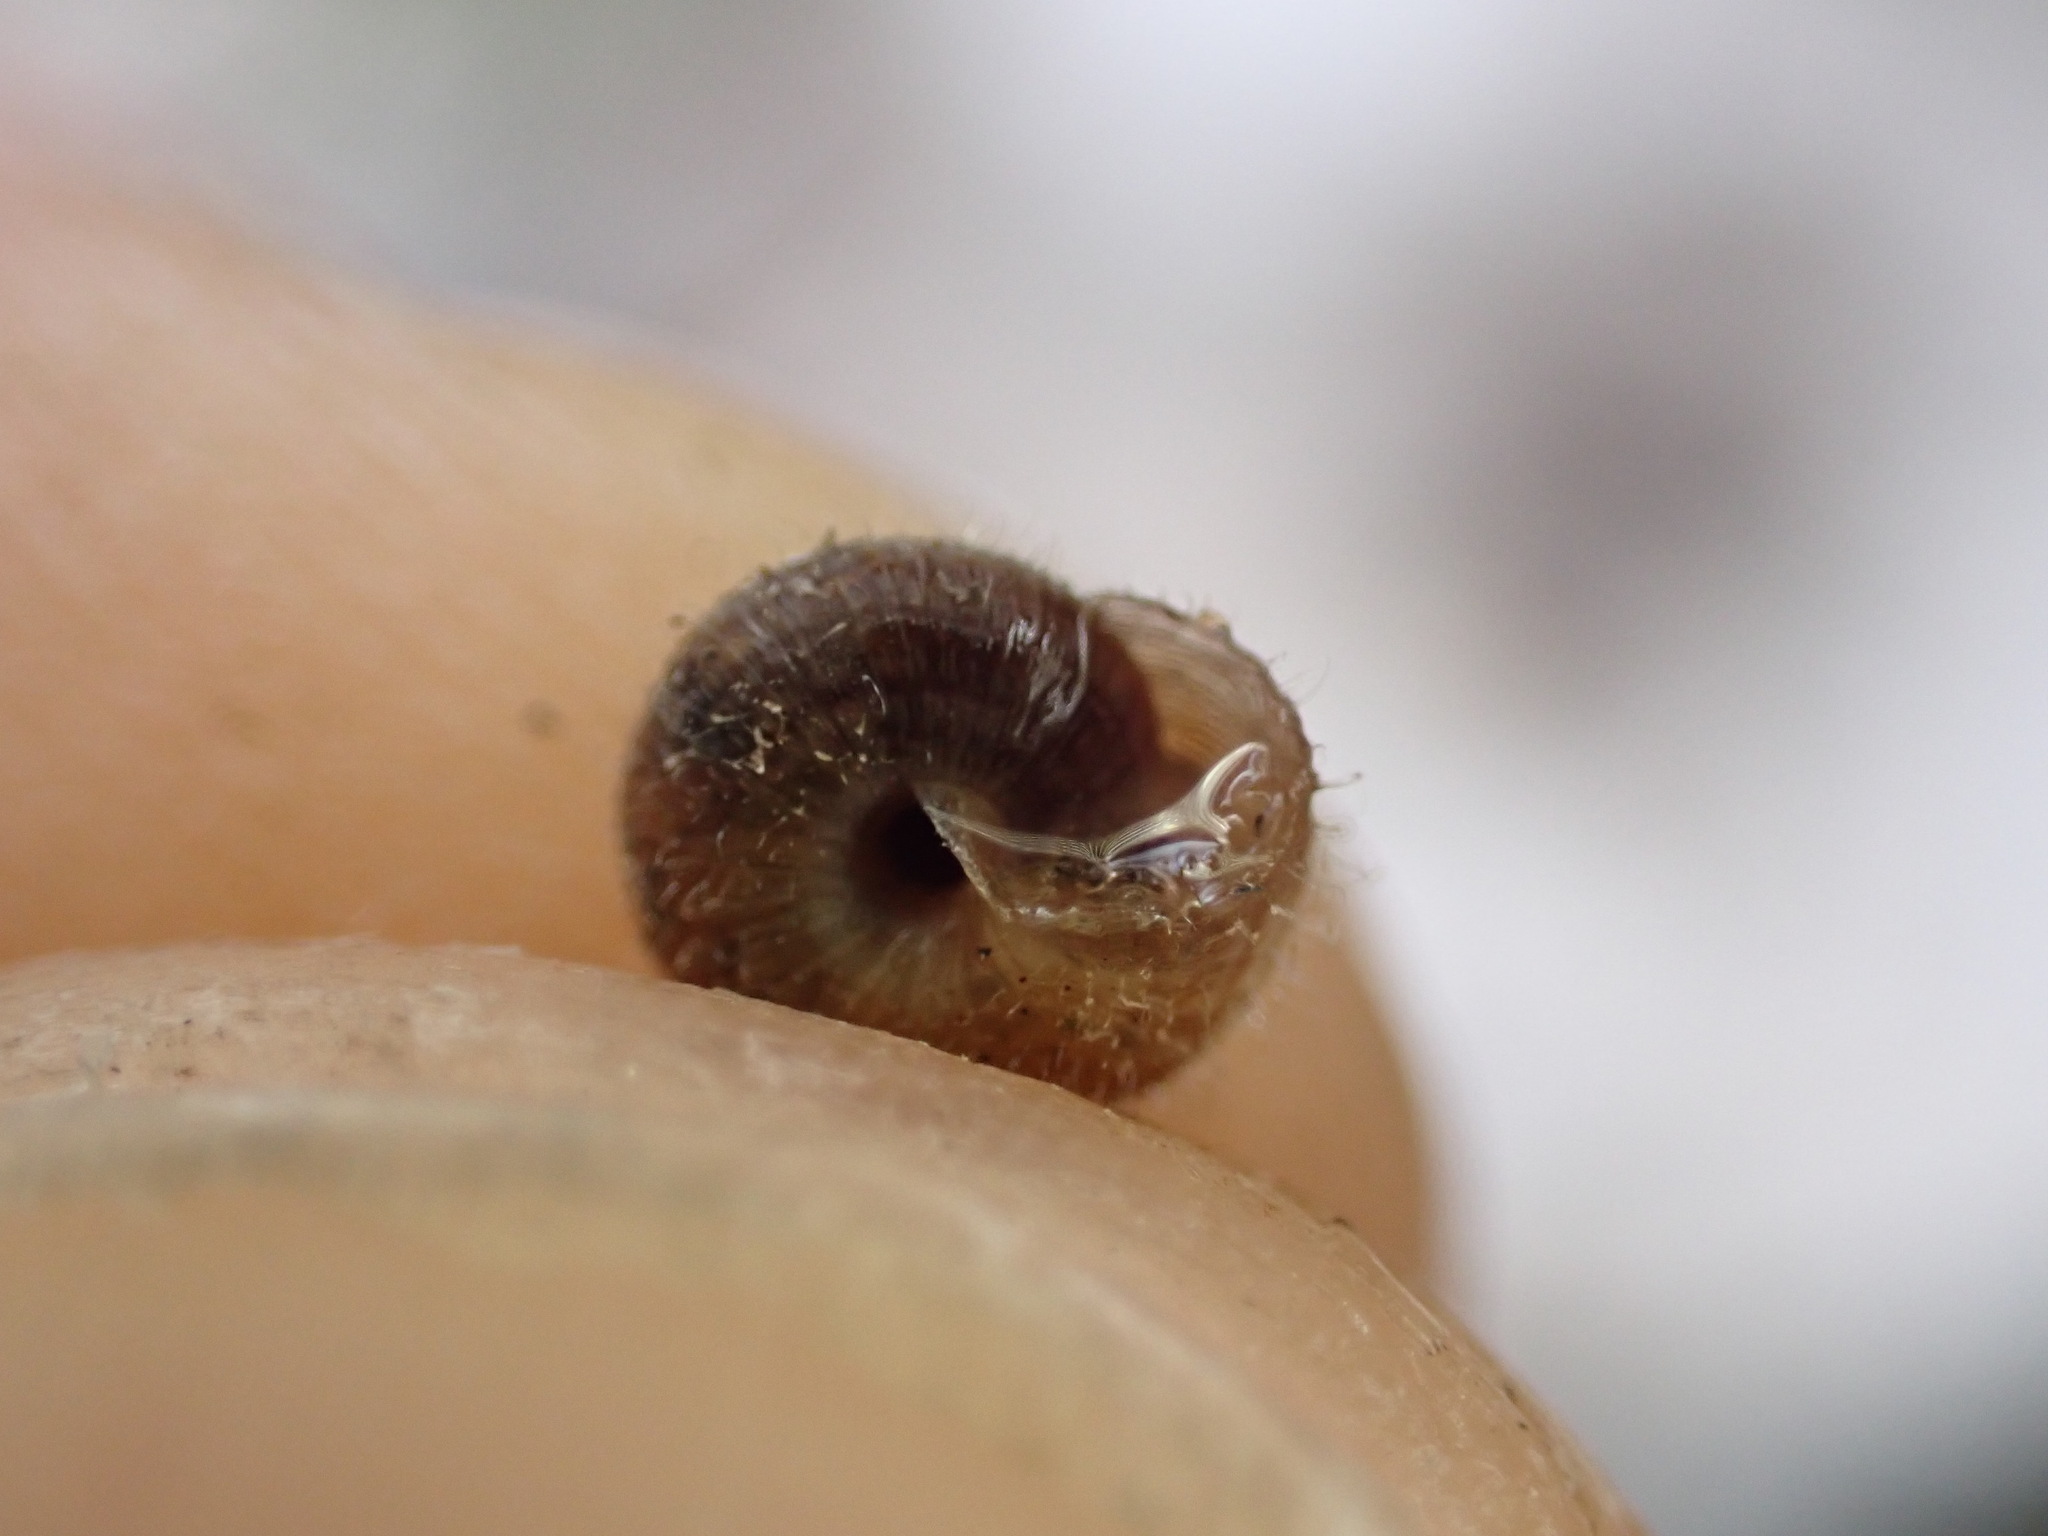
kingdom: Animalia
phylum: Mollusca
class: Gastropoda
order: Stylommatophora
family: Geomitridae
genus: Xerotricha
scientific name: Xerotricha conspurcata
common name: Snail
